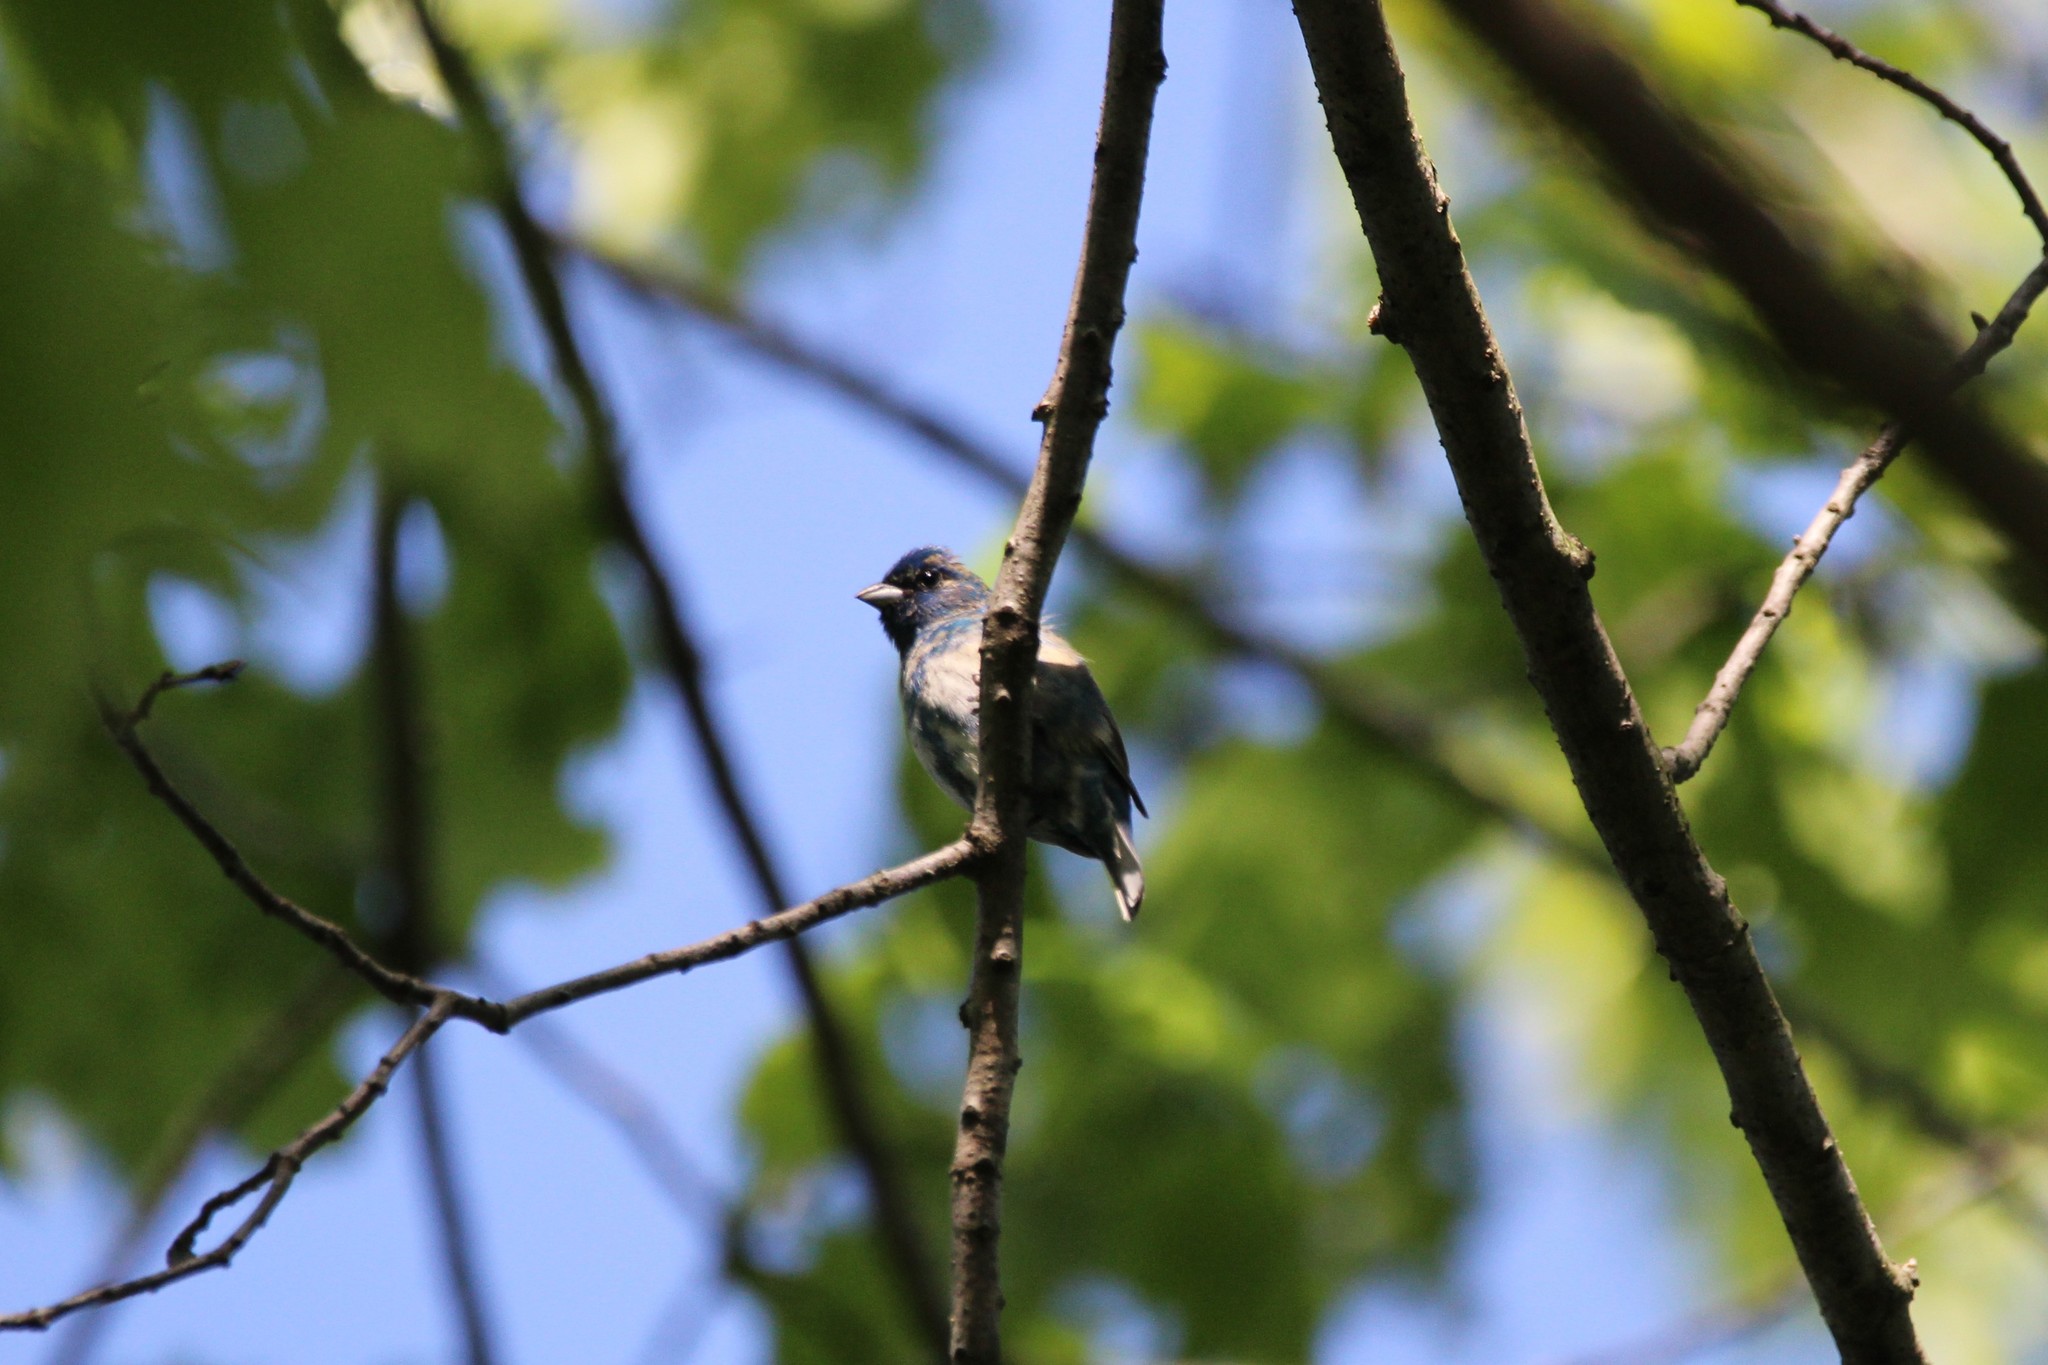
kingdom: Animalia
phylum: Chordata
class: Aves
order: Passeriformes
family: Cardinalidae
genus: Passerina
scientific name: Passerina cyanea
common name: Indigo bunting
